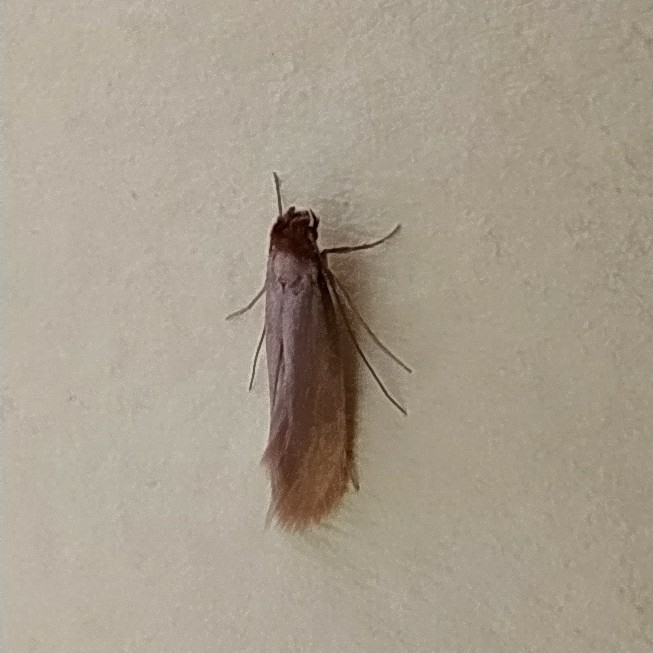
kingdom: Animalia
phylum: Arthropoda
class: Insecta
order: Lepidoptera
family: Tineidae
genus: Tineola
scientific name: Tineola bisselliella
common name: Webbing clothes moth
